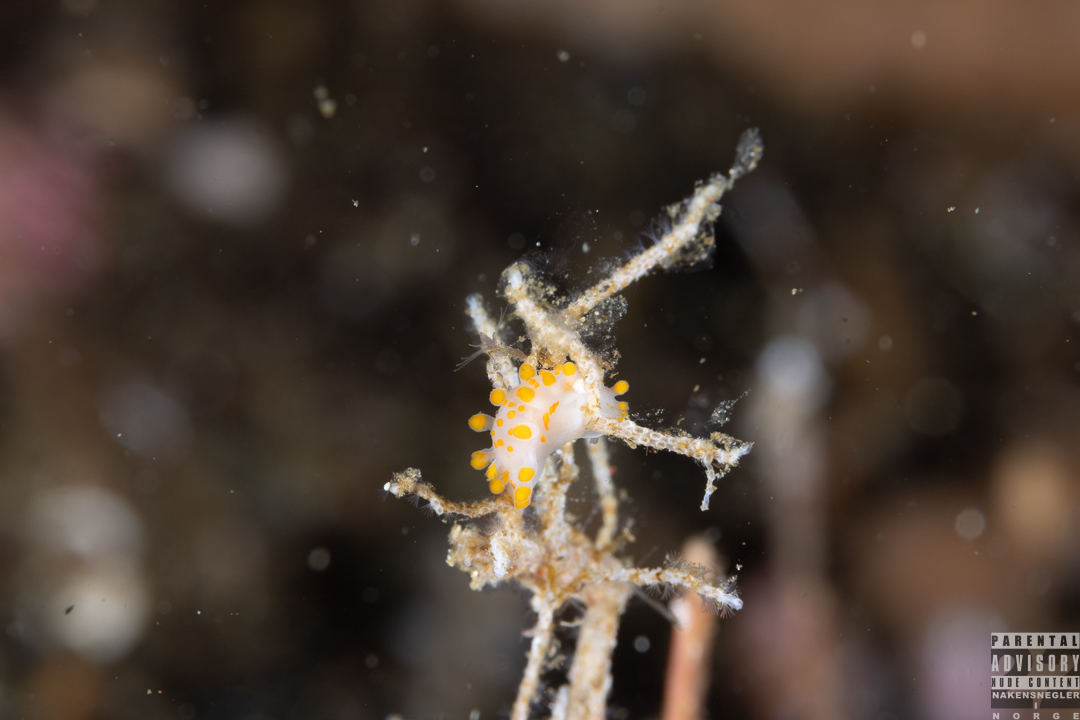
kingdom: Animalia
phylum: Mollusca
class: Gastropoda
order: Nudibranchia
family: Polyceridae
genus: Limacia
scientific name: Limacia clavigera
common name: Orange-clubbed sea slug
